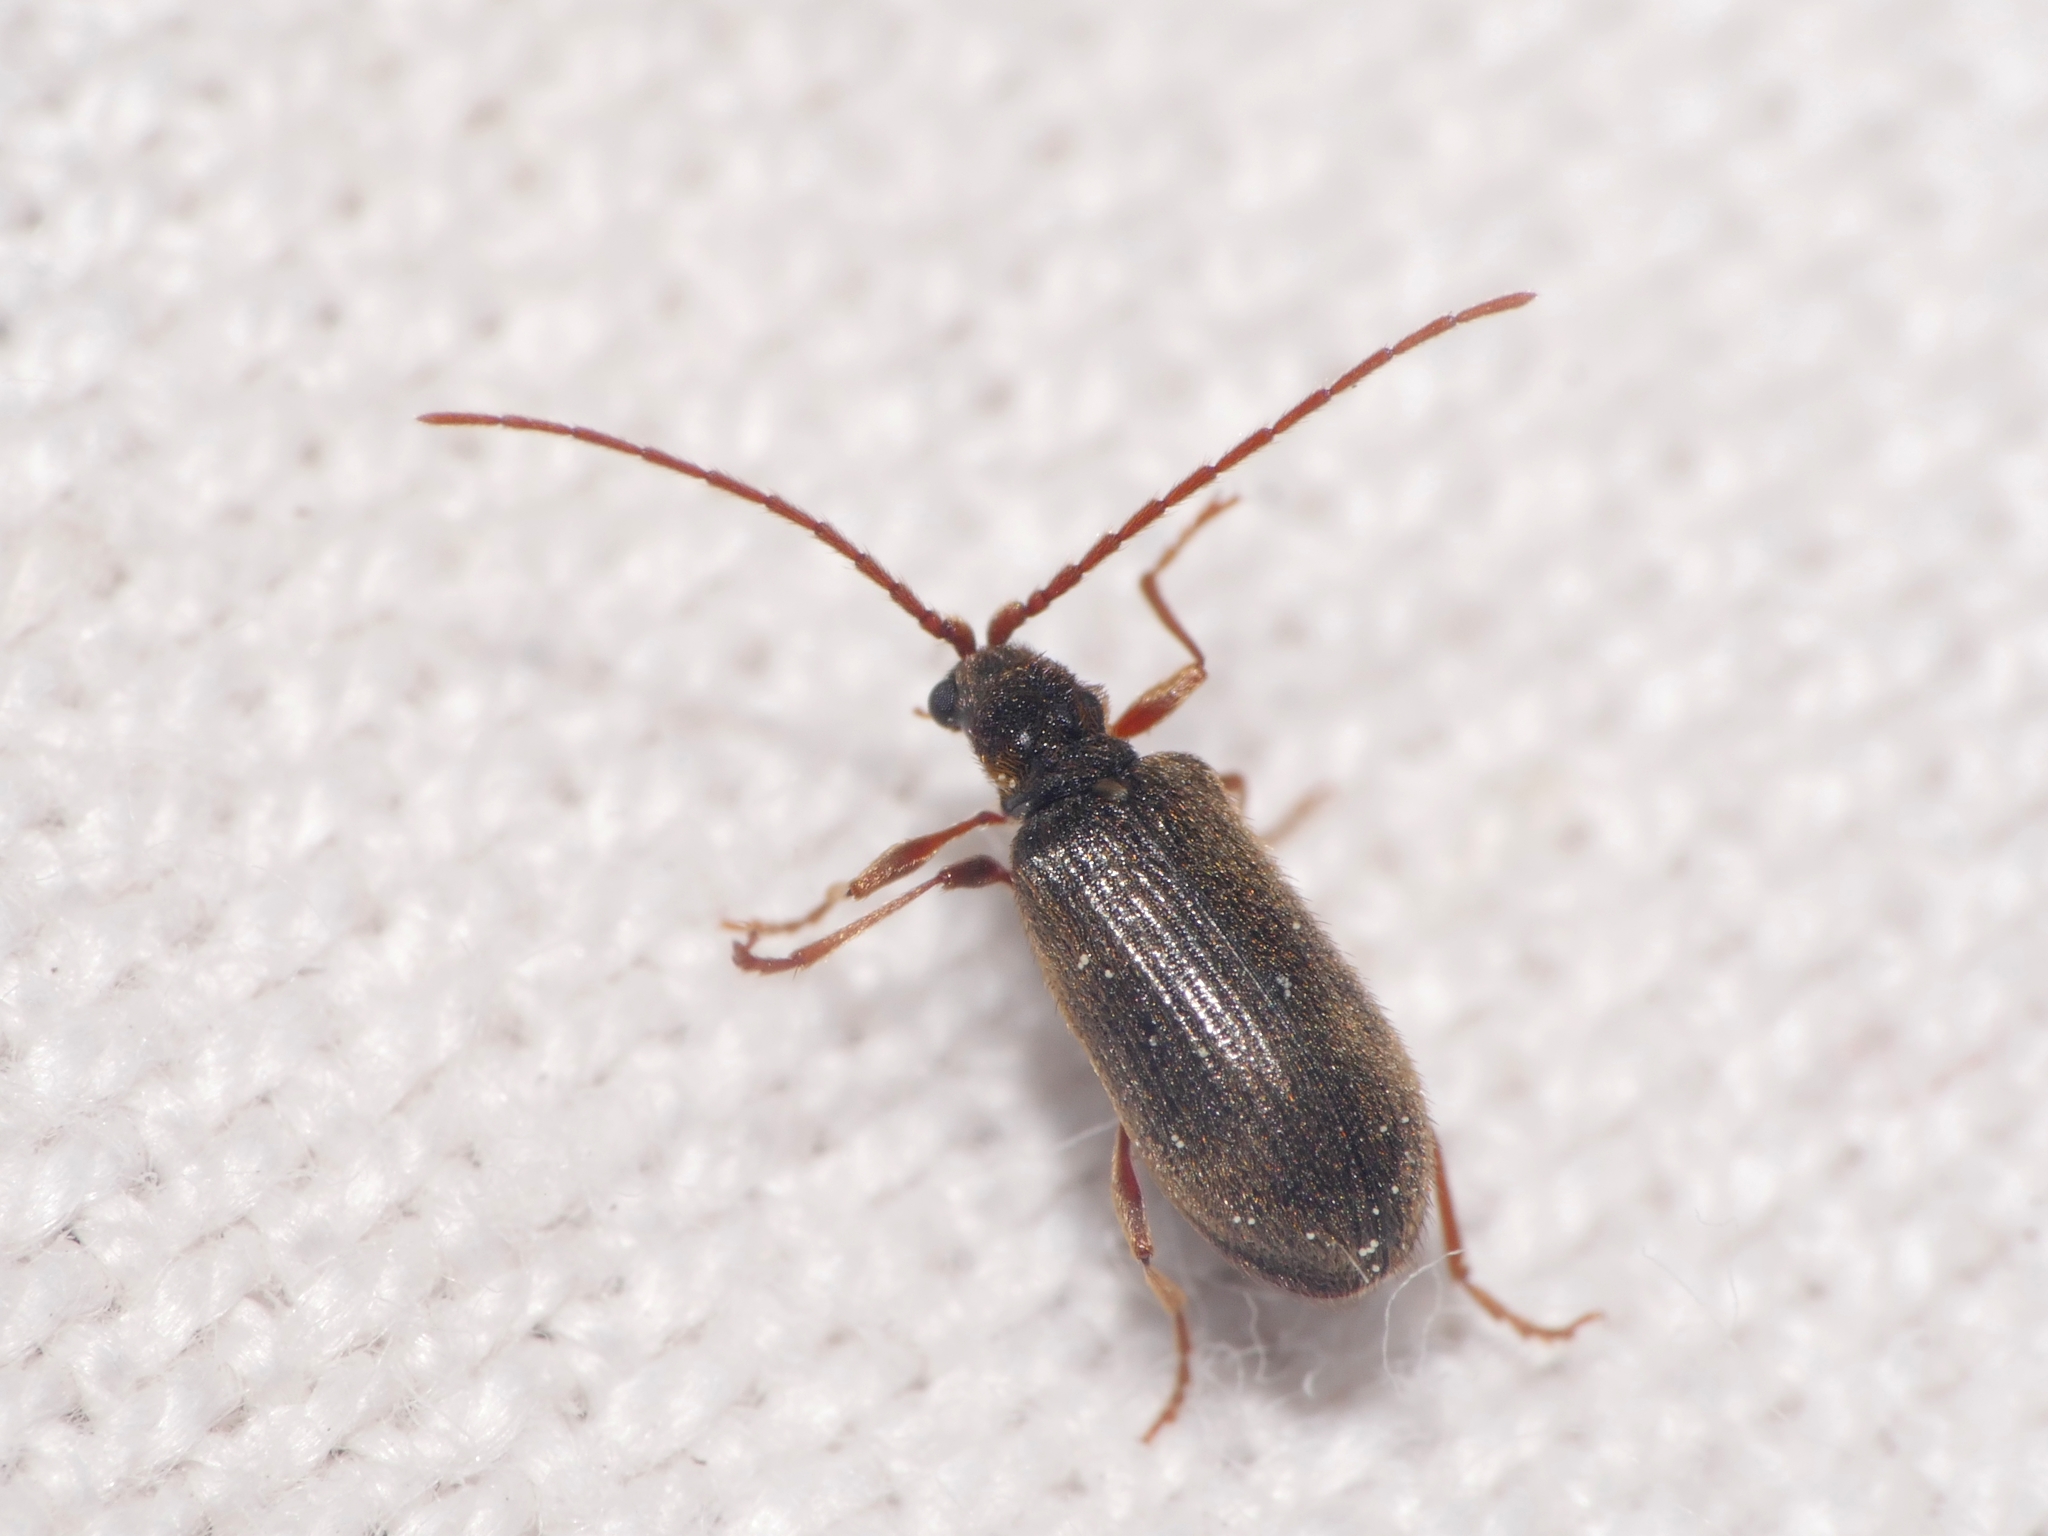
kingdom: Animalia
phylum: Arthropoda
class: Insecta
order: Coleoptera
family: Ptinidae
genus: Ptinus
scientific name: Ptinus rufipes
